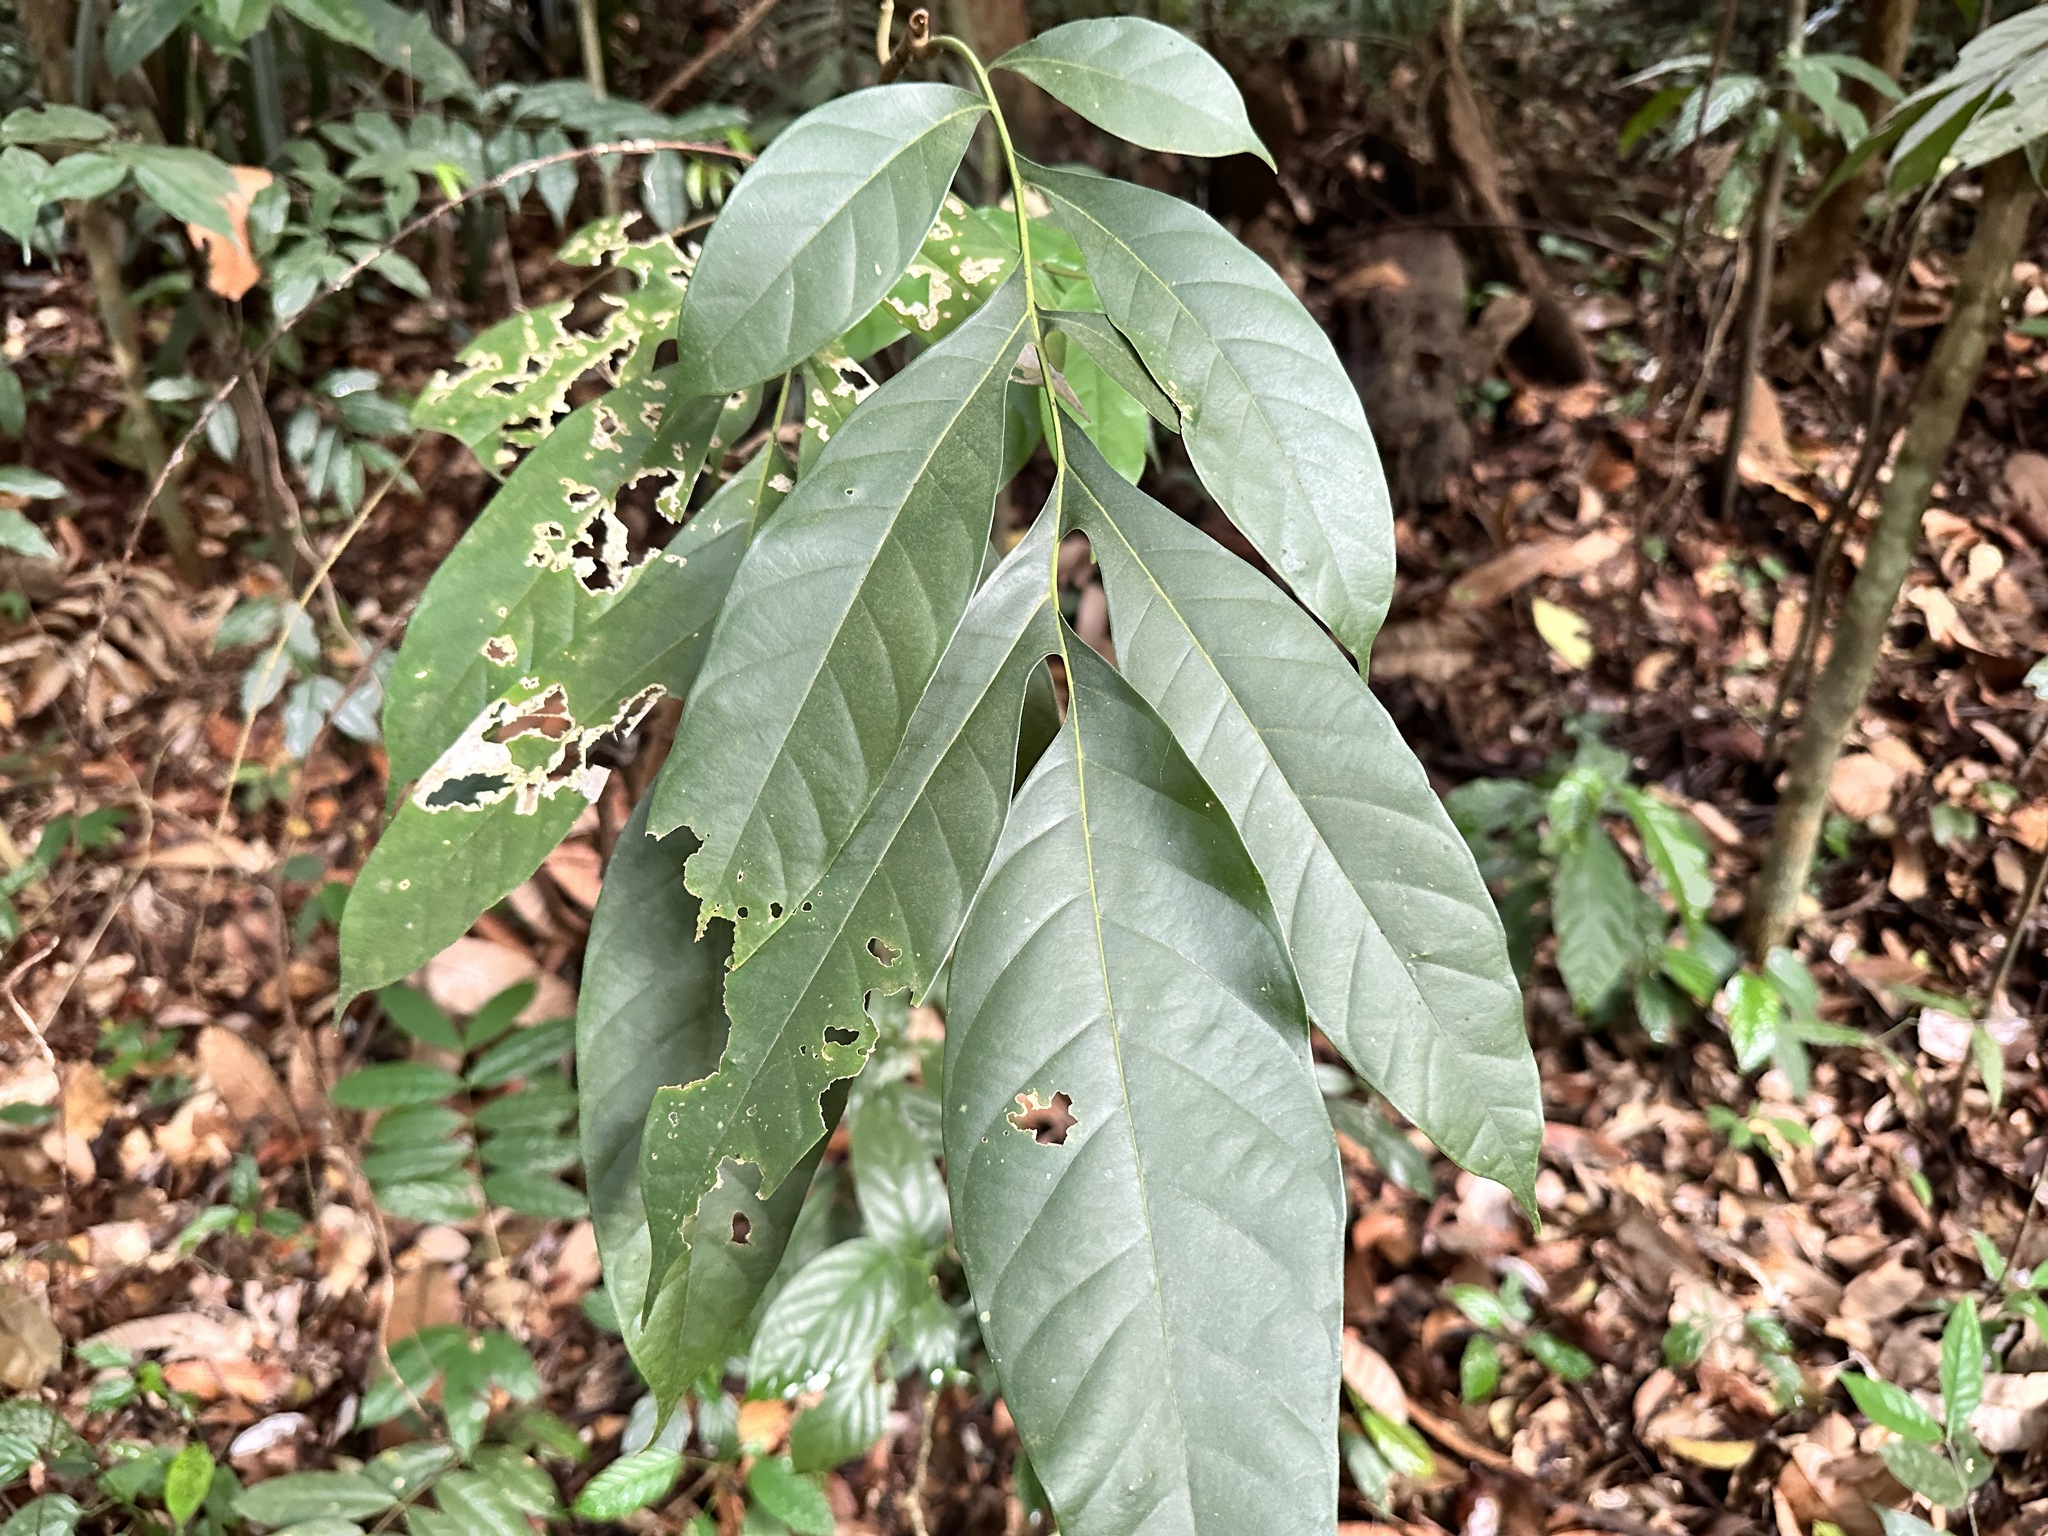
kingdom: Plantae
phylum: Tracheophyta
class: Magnoliopsida
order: Rosales
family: Moraceae
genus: Artocarpus
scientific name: Artocarpus lanceifolius
